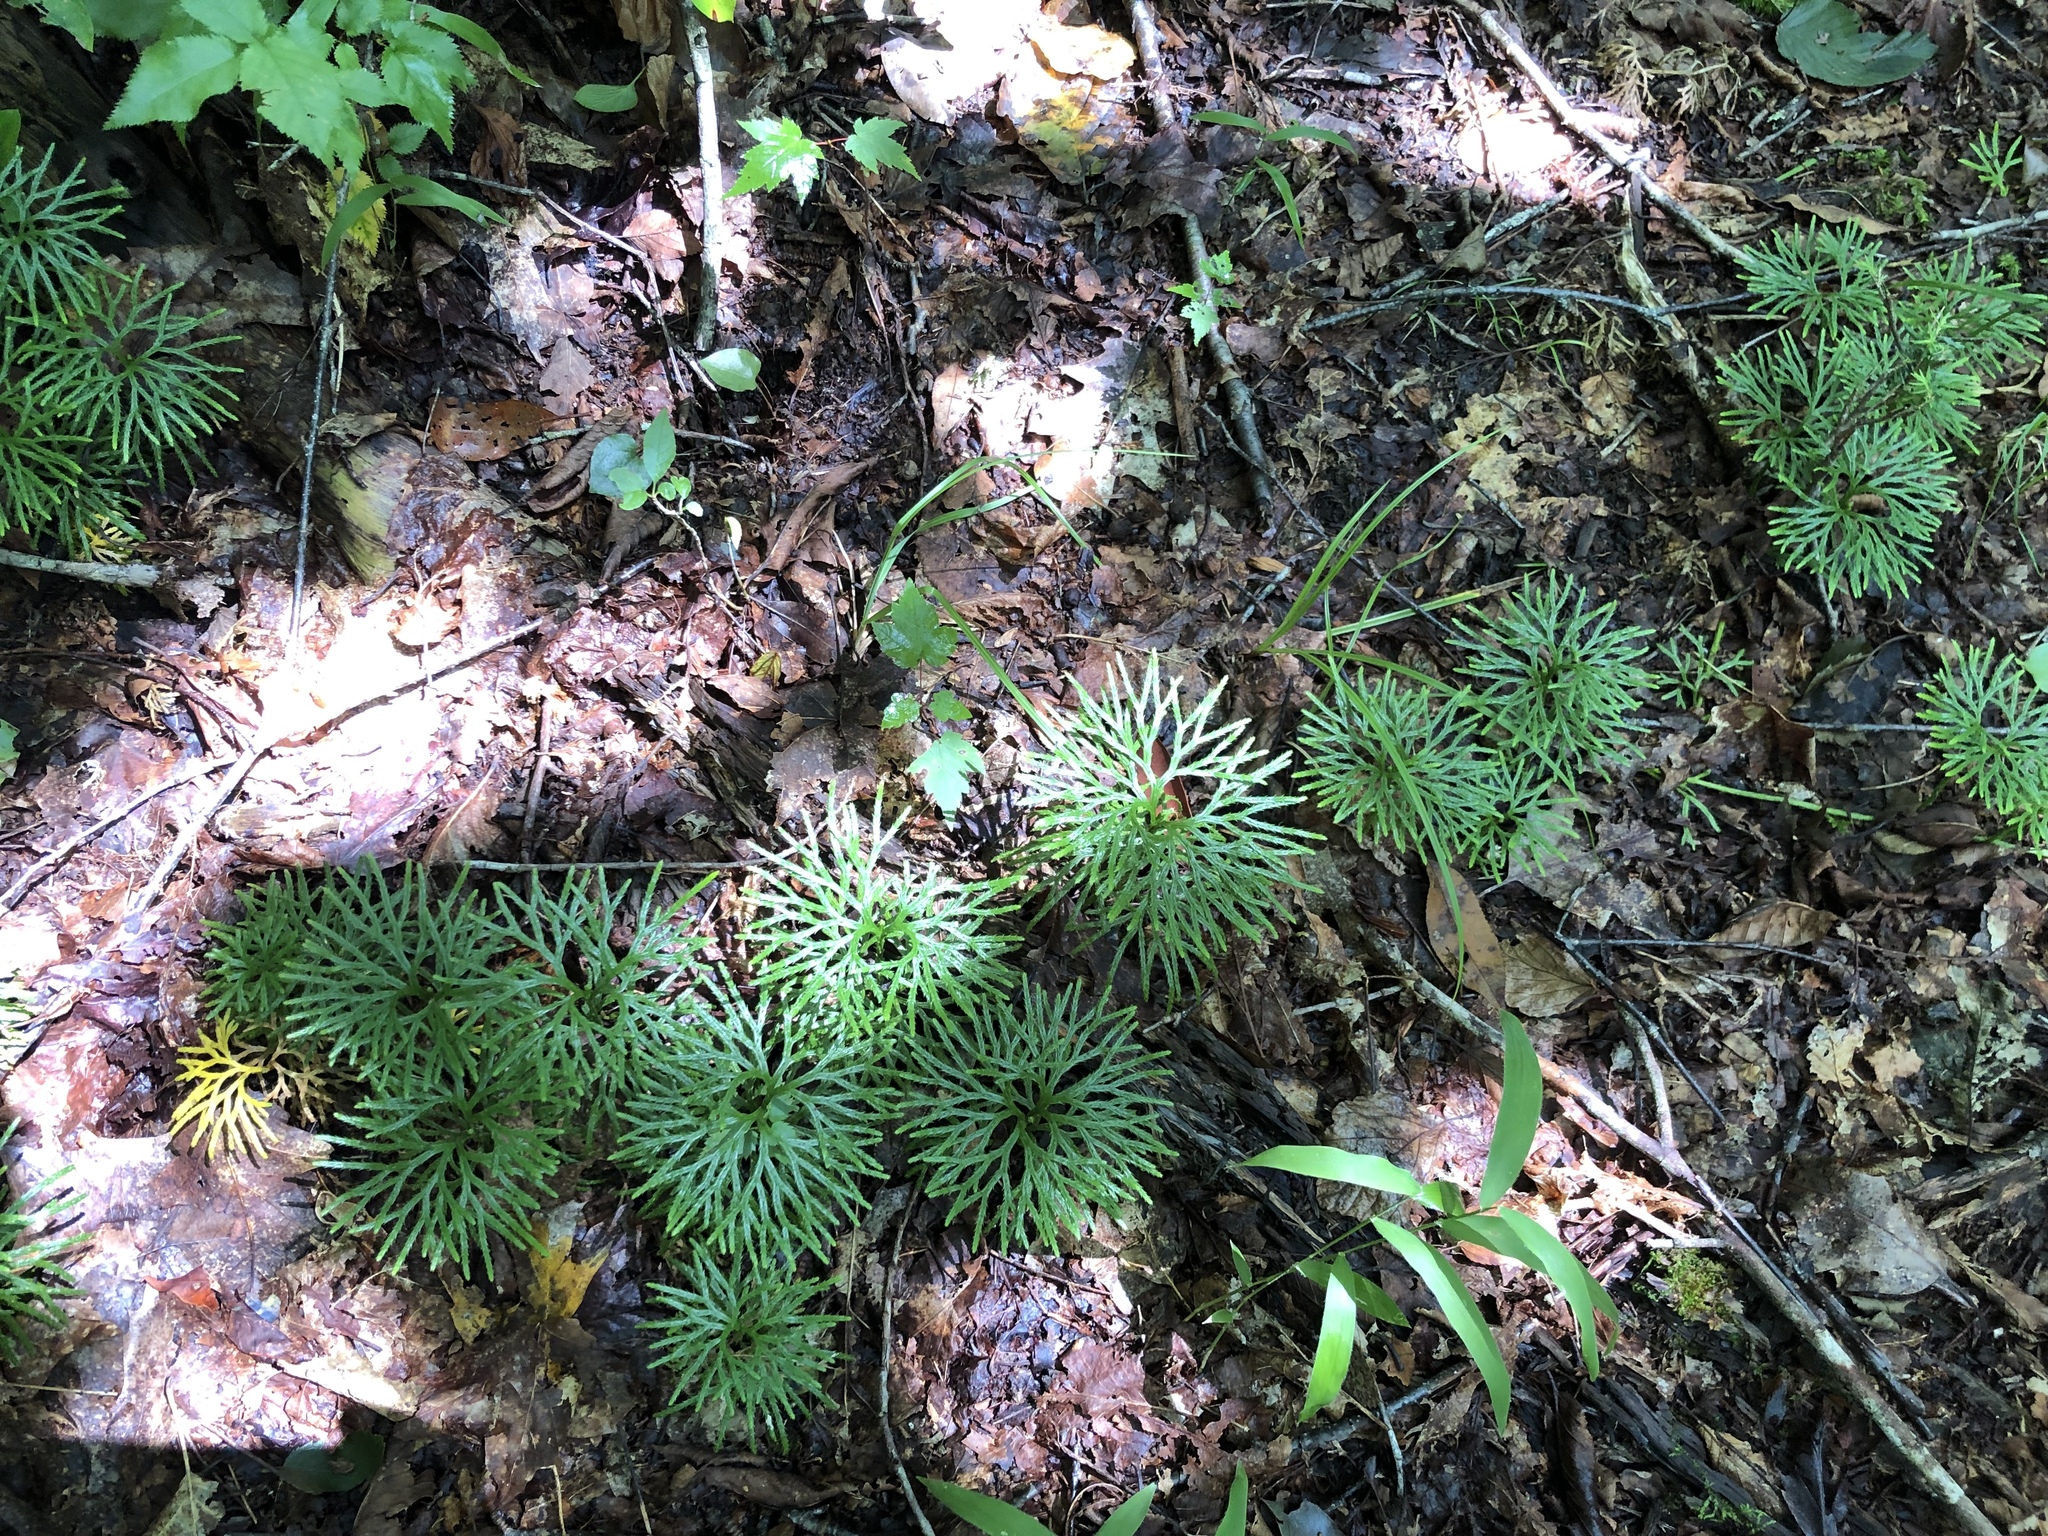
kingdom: Plantae
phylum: Tracheophyta
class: Lycopodiopsida
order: Lycopodiales
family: Lycopodiaceae
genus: Diphasiastrum
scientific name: Diphasiastrum digitatum
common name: Southern running-pine
